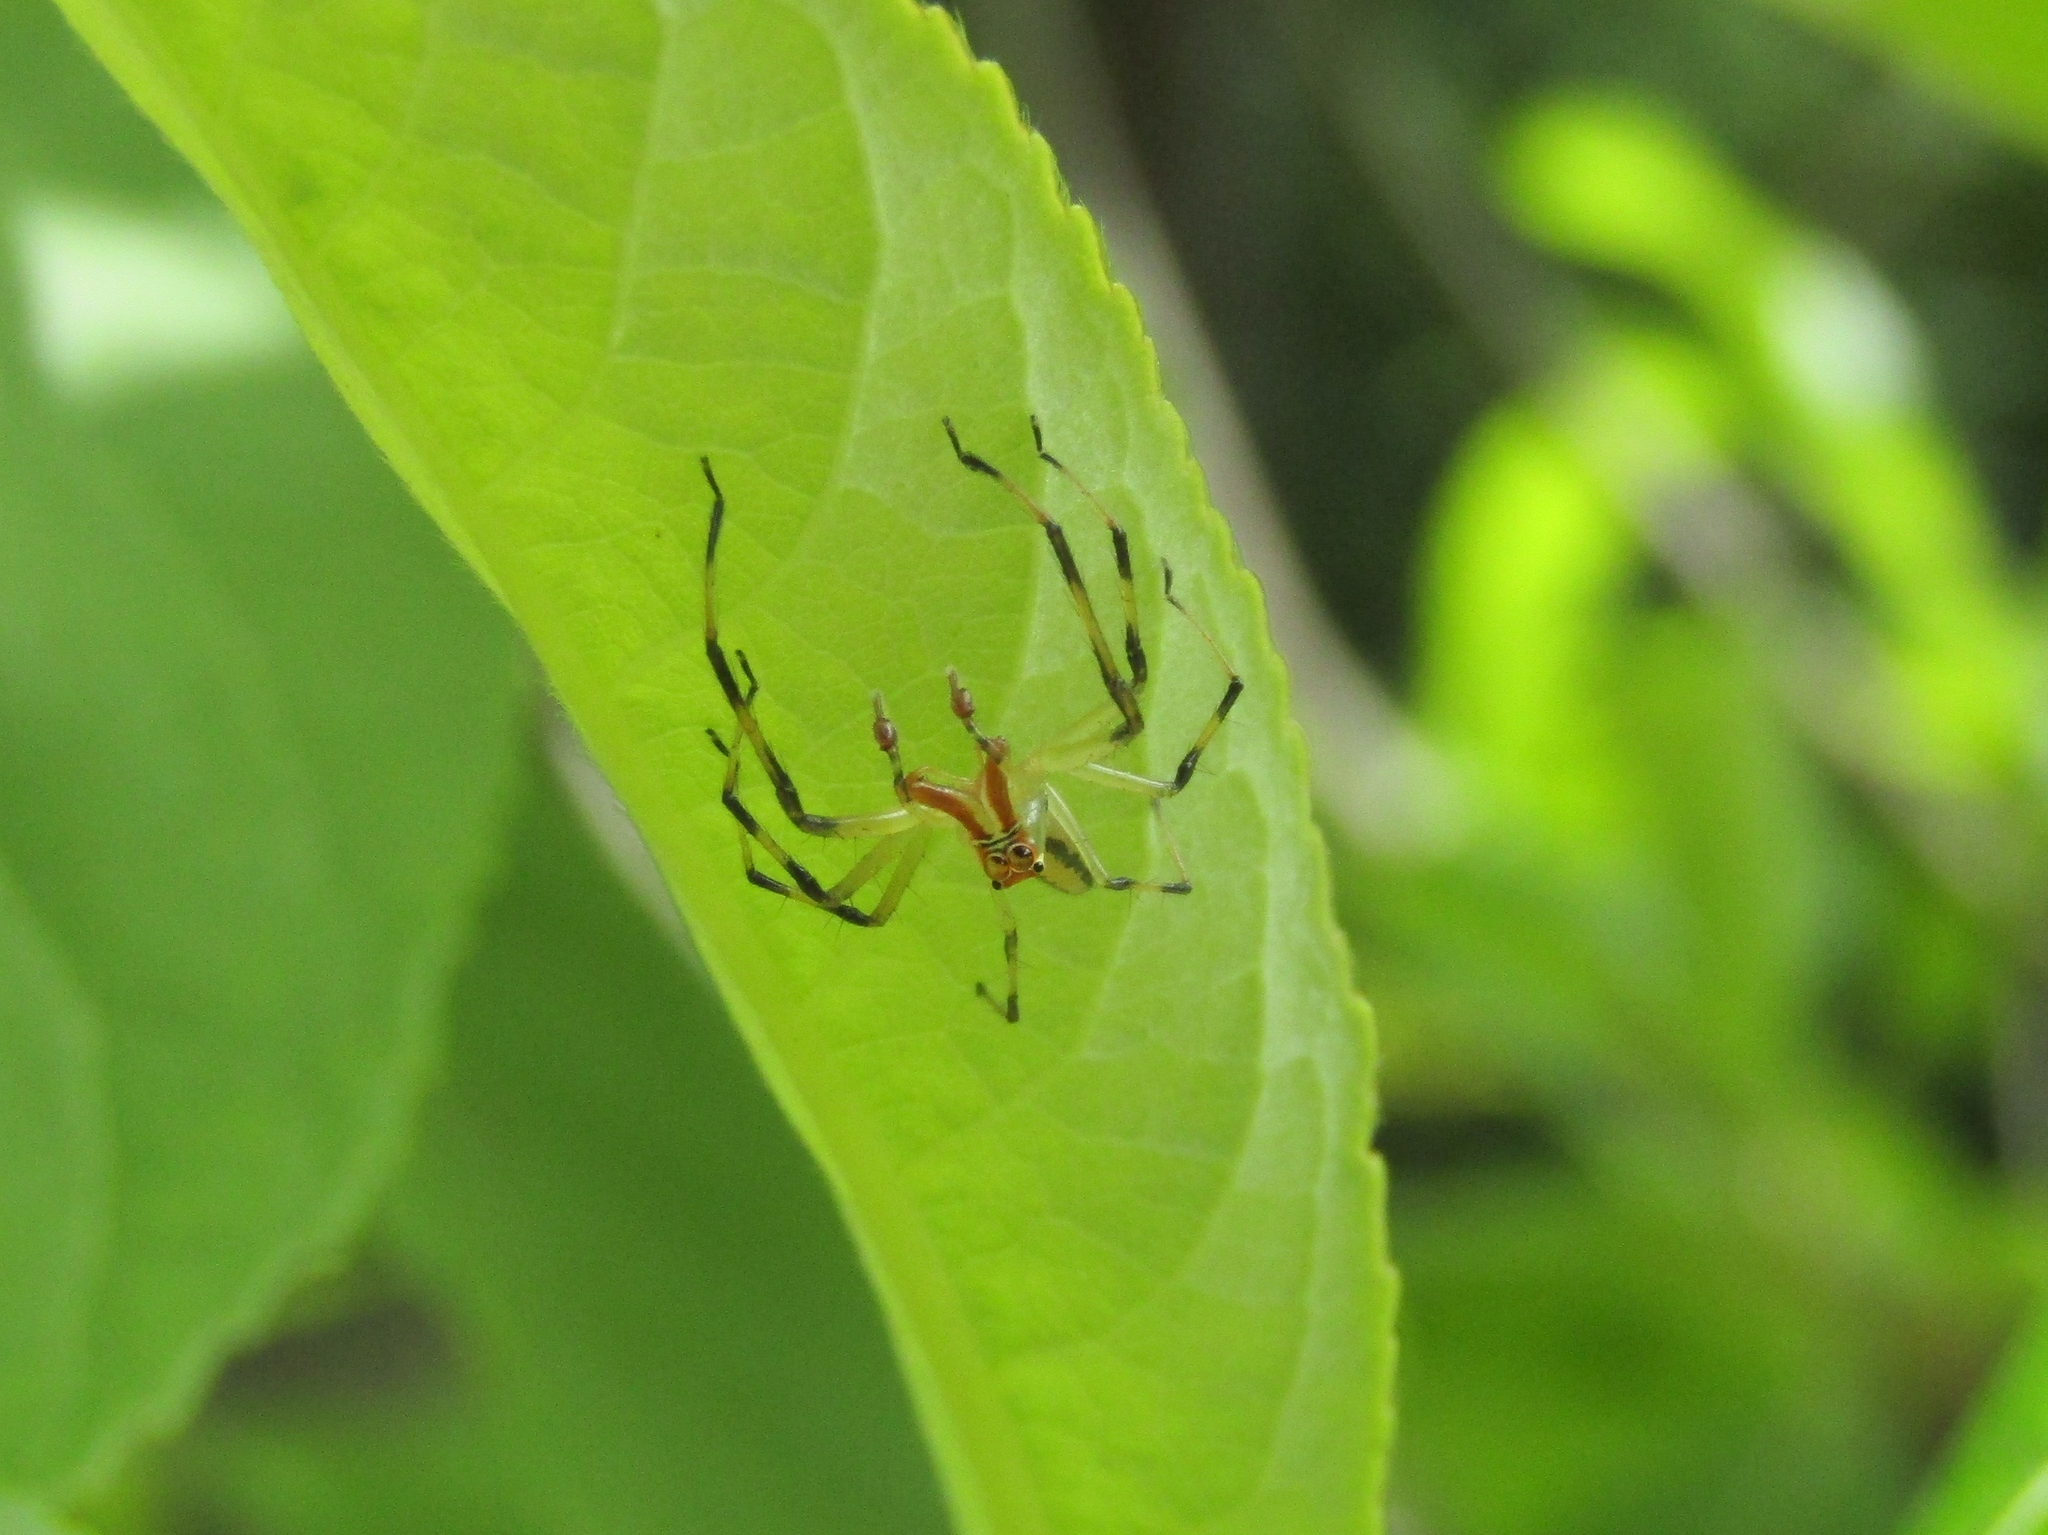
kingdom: Animalia
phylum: Arthropoda
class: Arachnida
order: Araneae
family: Salticidae
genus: Lyssomanes
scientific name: Lyssomanes viridis
